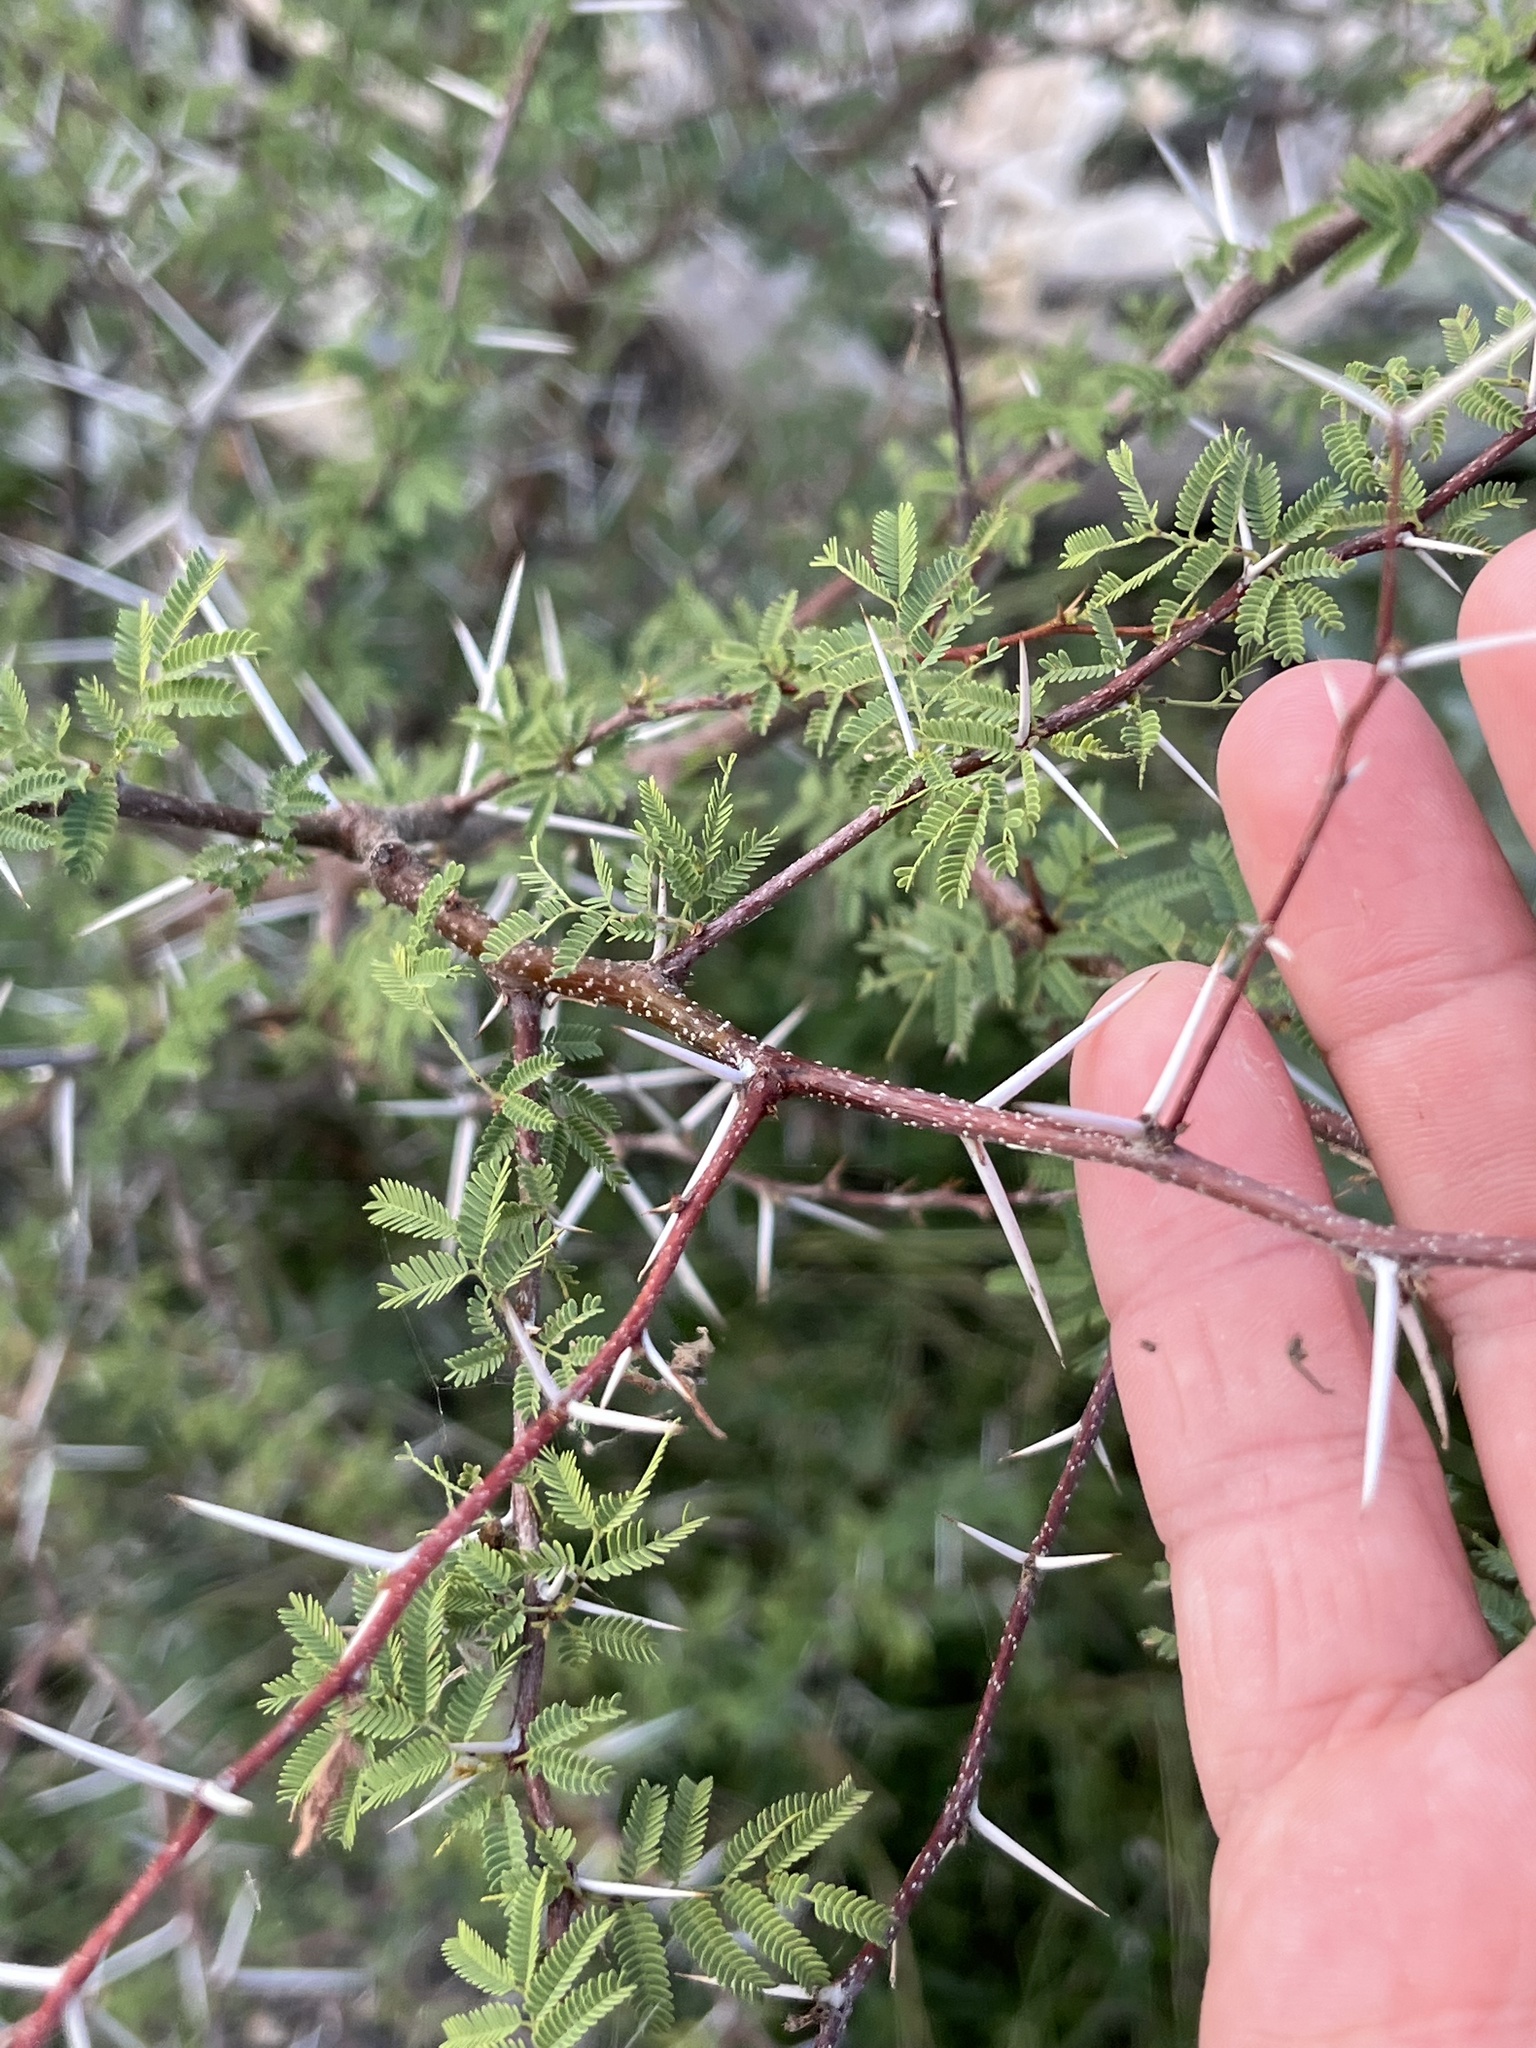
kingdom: Plantae
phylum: Tracheophyta
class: Magnoliopsida
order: Fabales
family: Fabaceae
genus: Vachellia
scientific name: Vachellia farnesiana
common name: Sweet acacia
